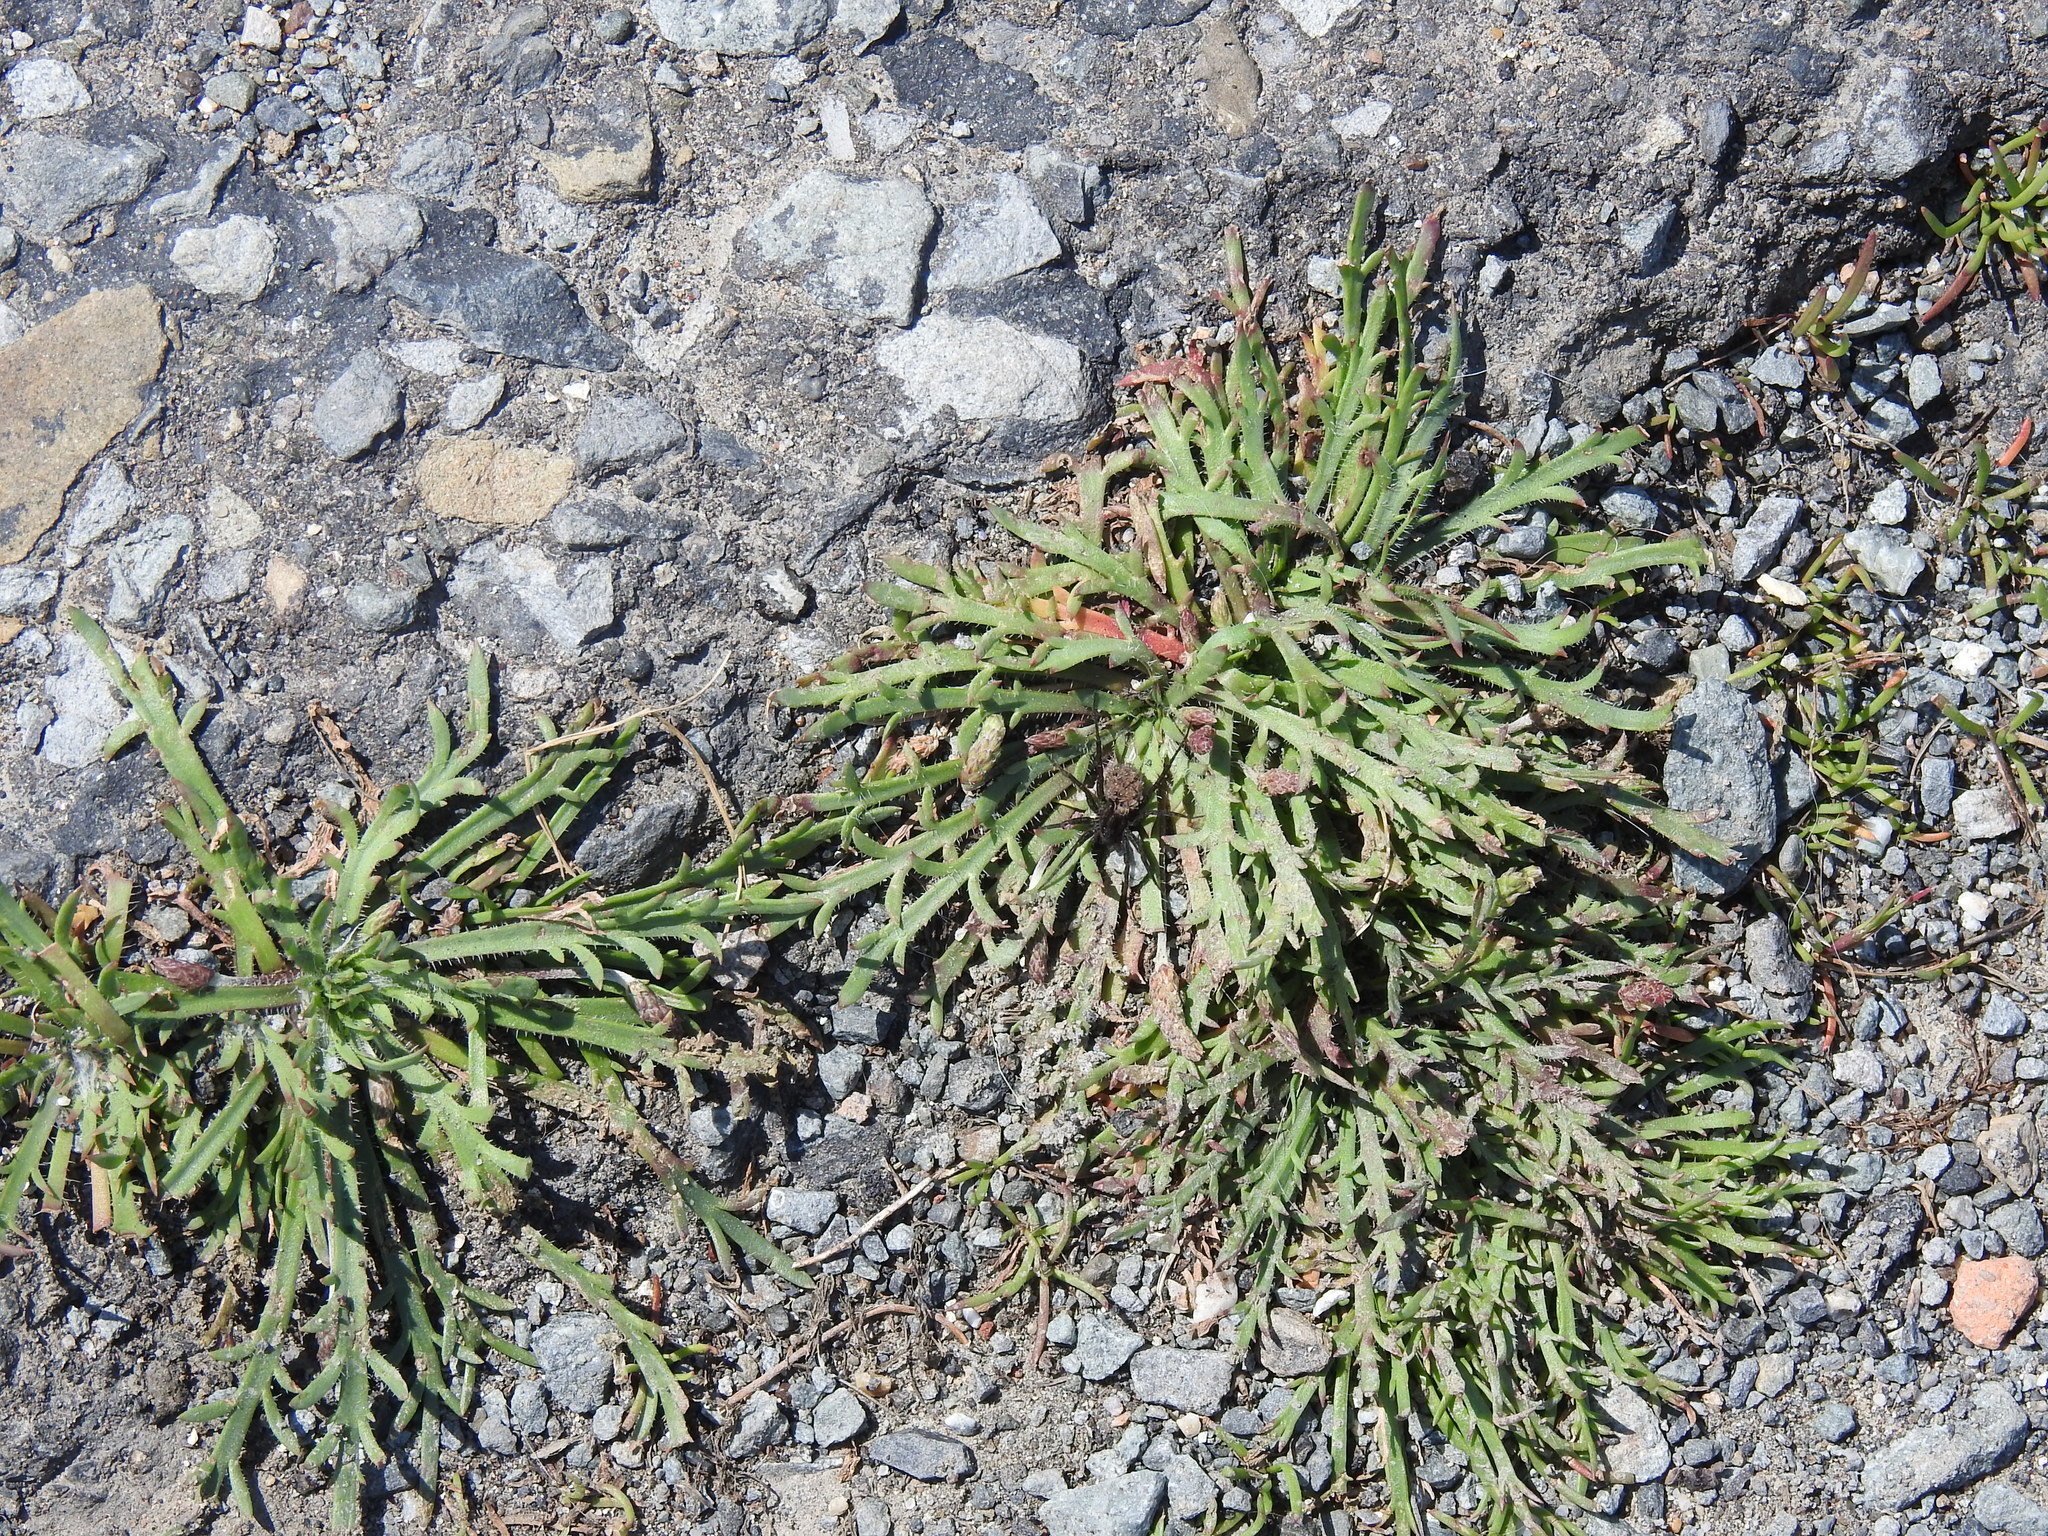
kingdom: Plantae
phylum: Tracheophyta
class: Magnoliopsida
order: Lamiales
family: Plantaginaceae
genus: Plantago
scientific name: Plantago coronopus
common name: Buck's-horn plantain
